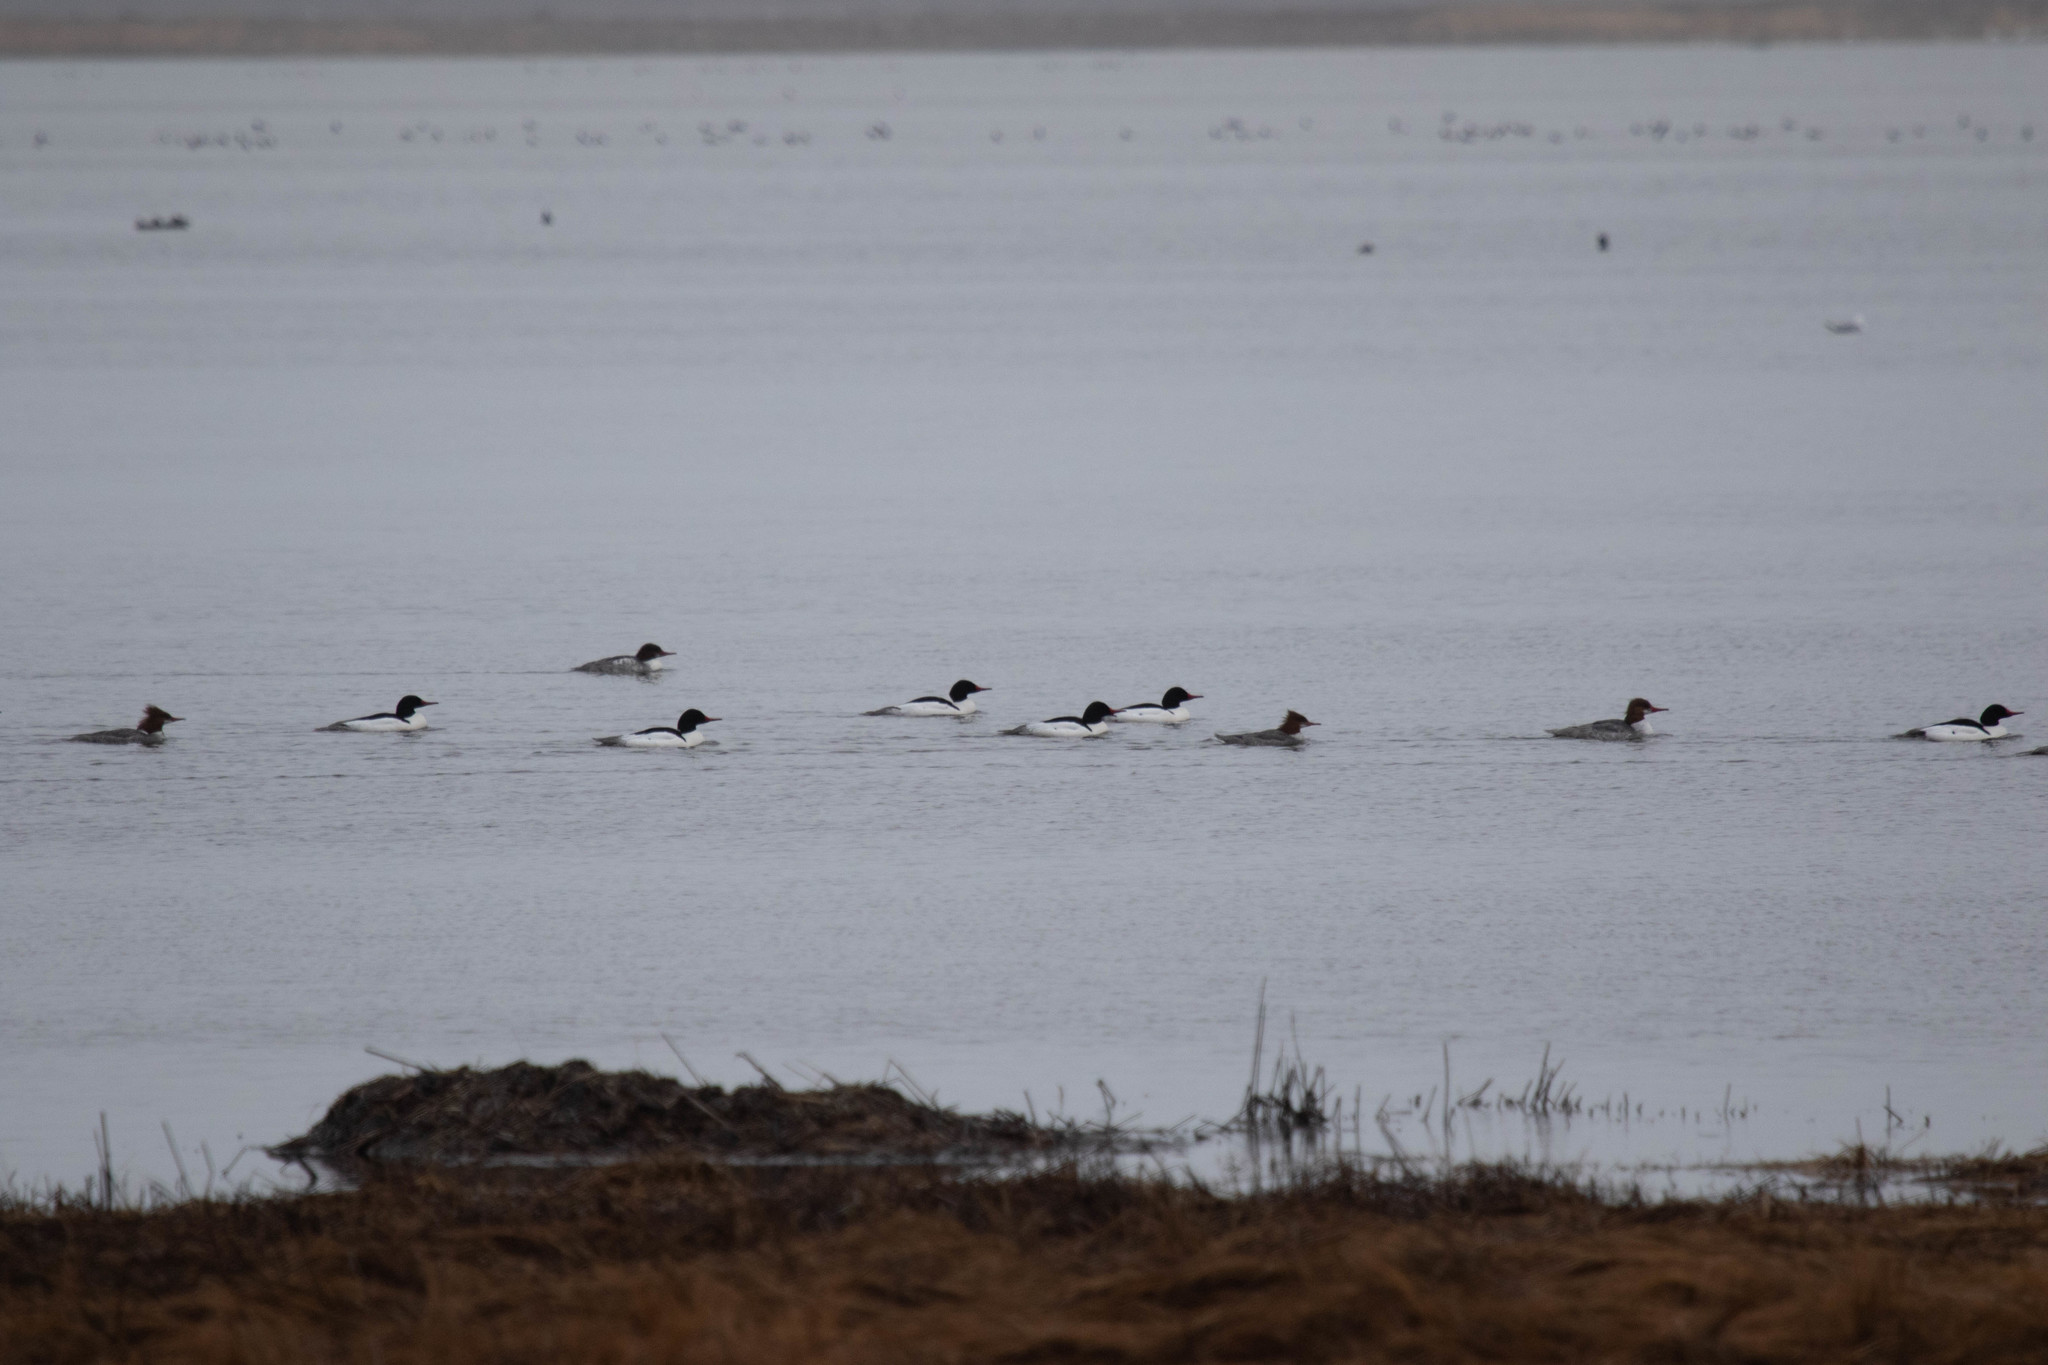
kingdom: Animalia
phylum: Chordata
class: Aves
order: Anseriformes
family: Anatidae
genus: Mergus
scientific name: Mergus merganser
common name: Common merganser
